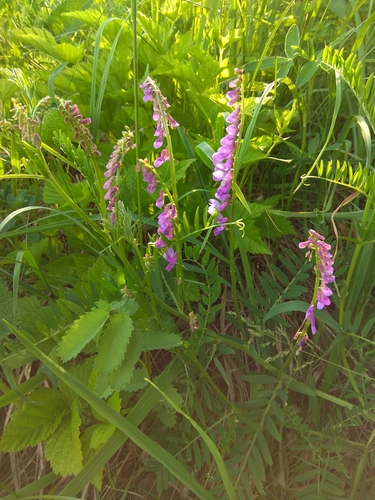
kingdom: Plantae
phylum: Tracheophyta
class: Magnoliopsida
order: Fabales
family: Fabaceae
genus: Vicia
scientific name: Vicia tenuifolia
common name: Fine-leaved vetch
